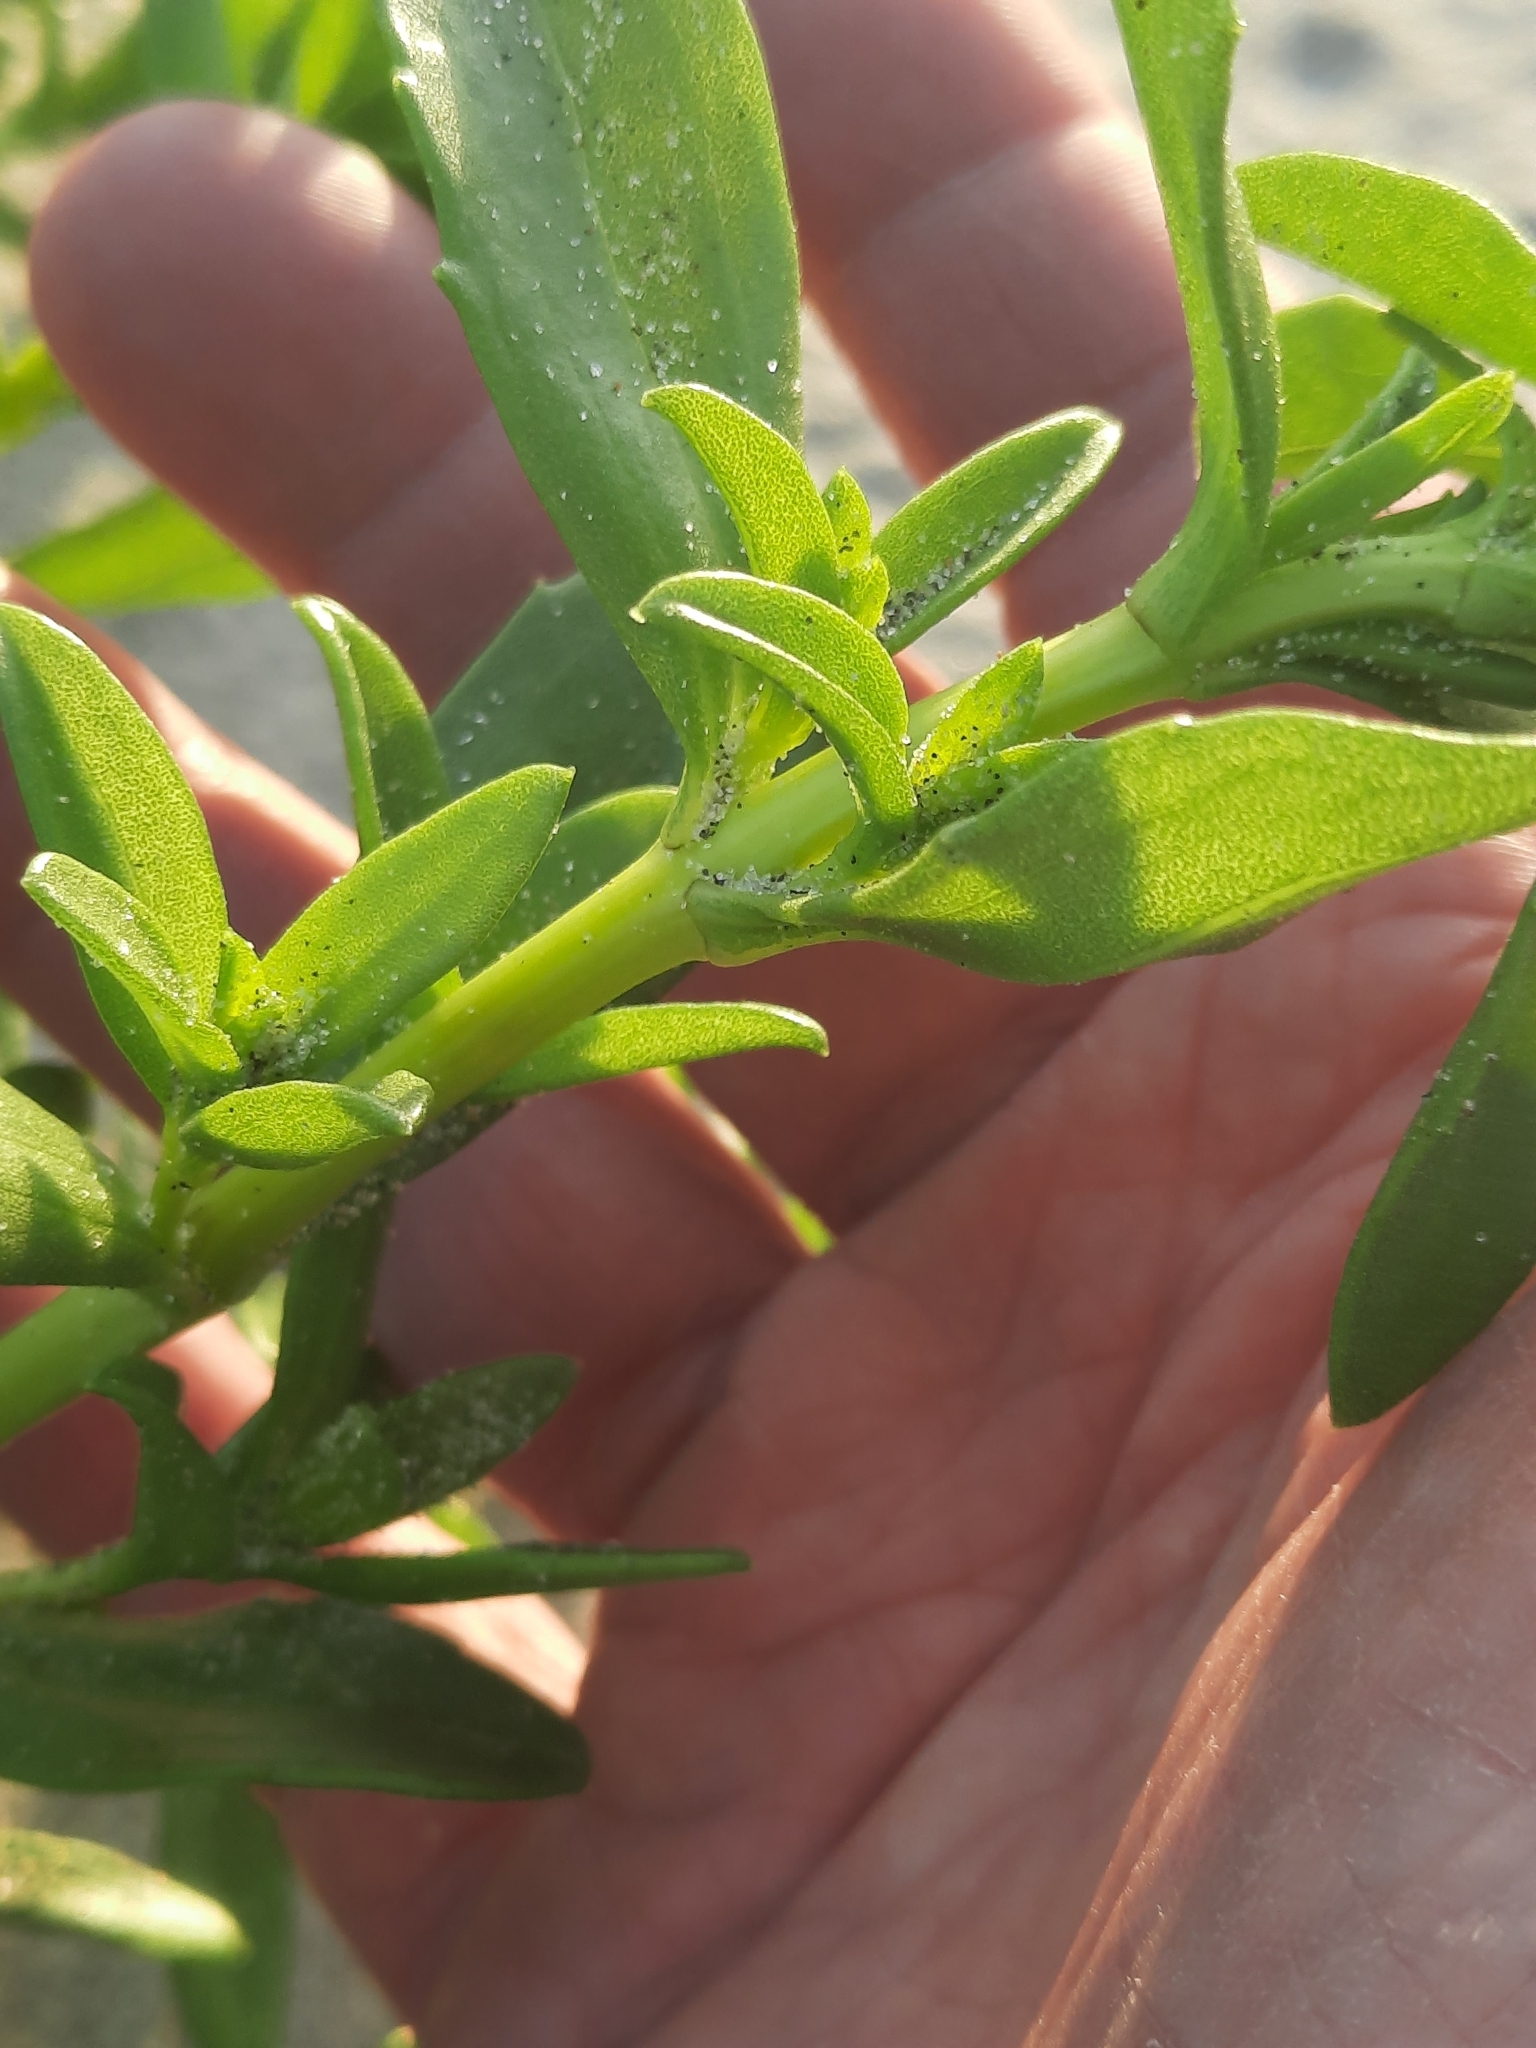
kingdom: Plantae
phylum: Tracheophyta
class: Magnoliopsida
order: Asterales
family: Asteraceae
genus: Iva
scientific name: Iva imbricata
